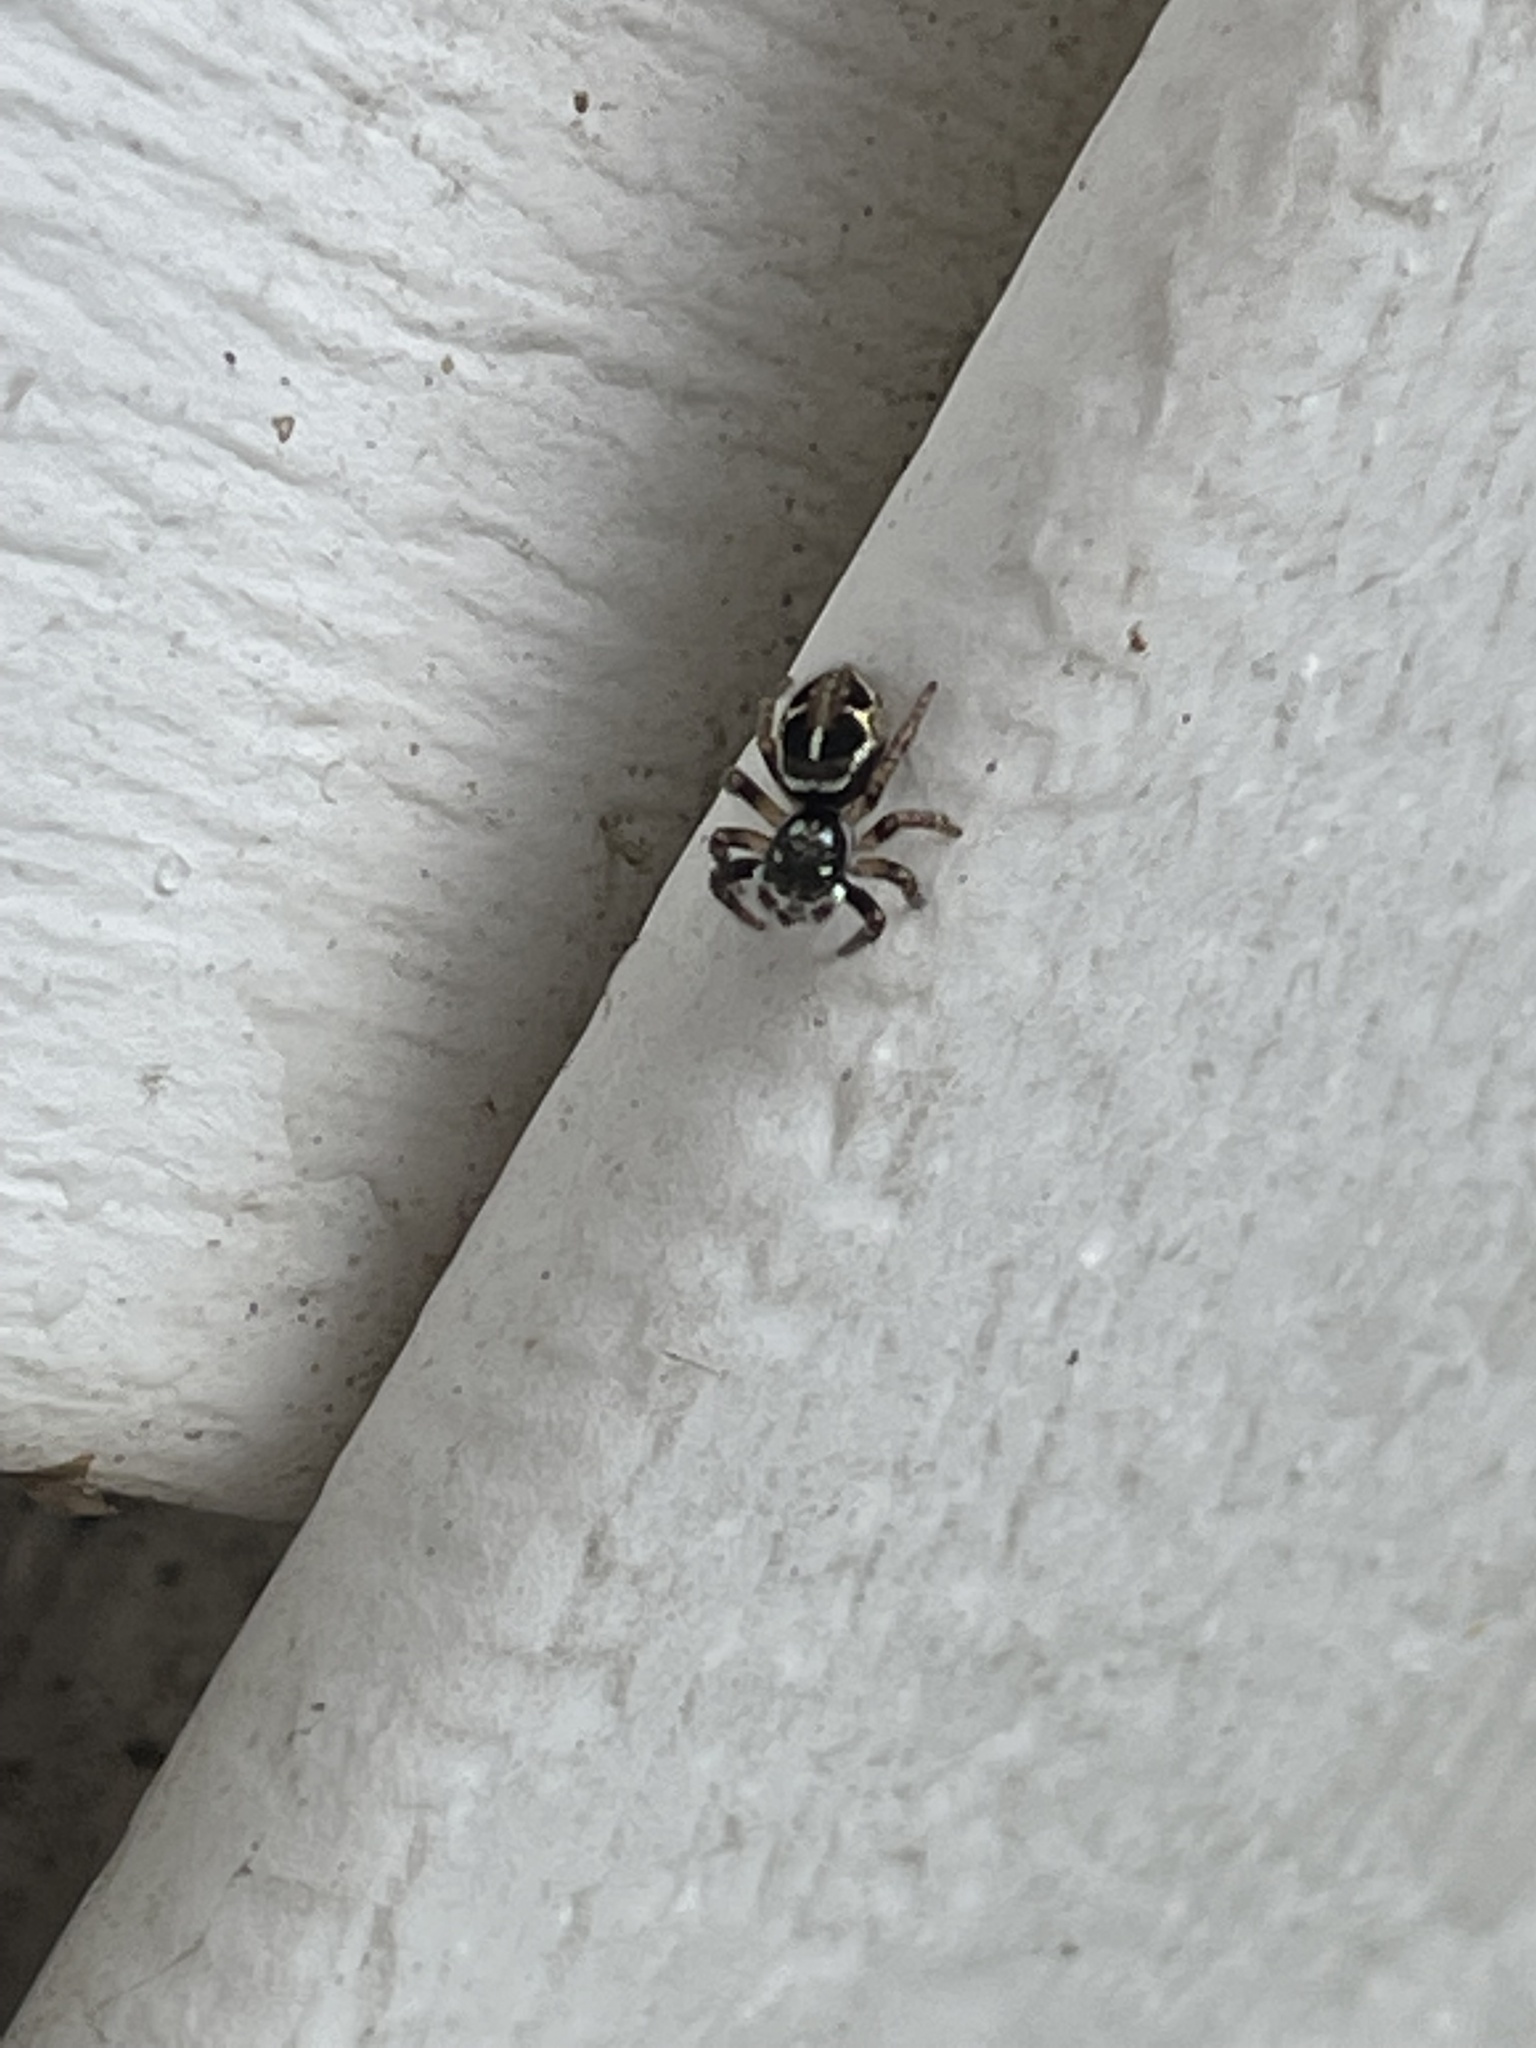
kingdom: Animalia
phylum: Arthropoda
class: Arachnida
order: Araneae
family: Salticidae
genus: Anasaitis
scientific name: Anasaitis canosa
